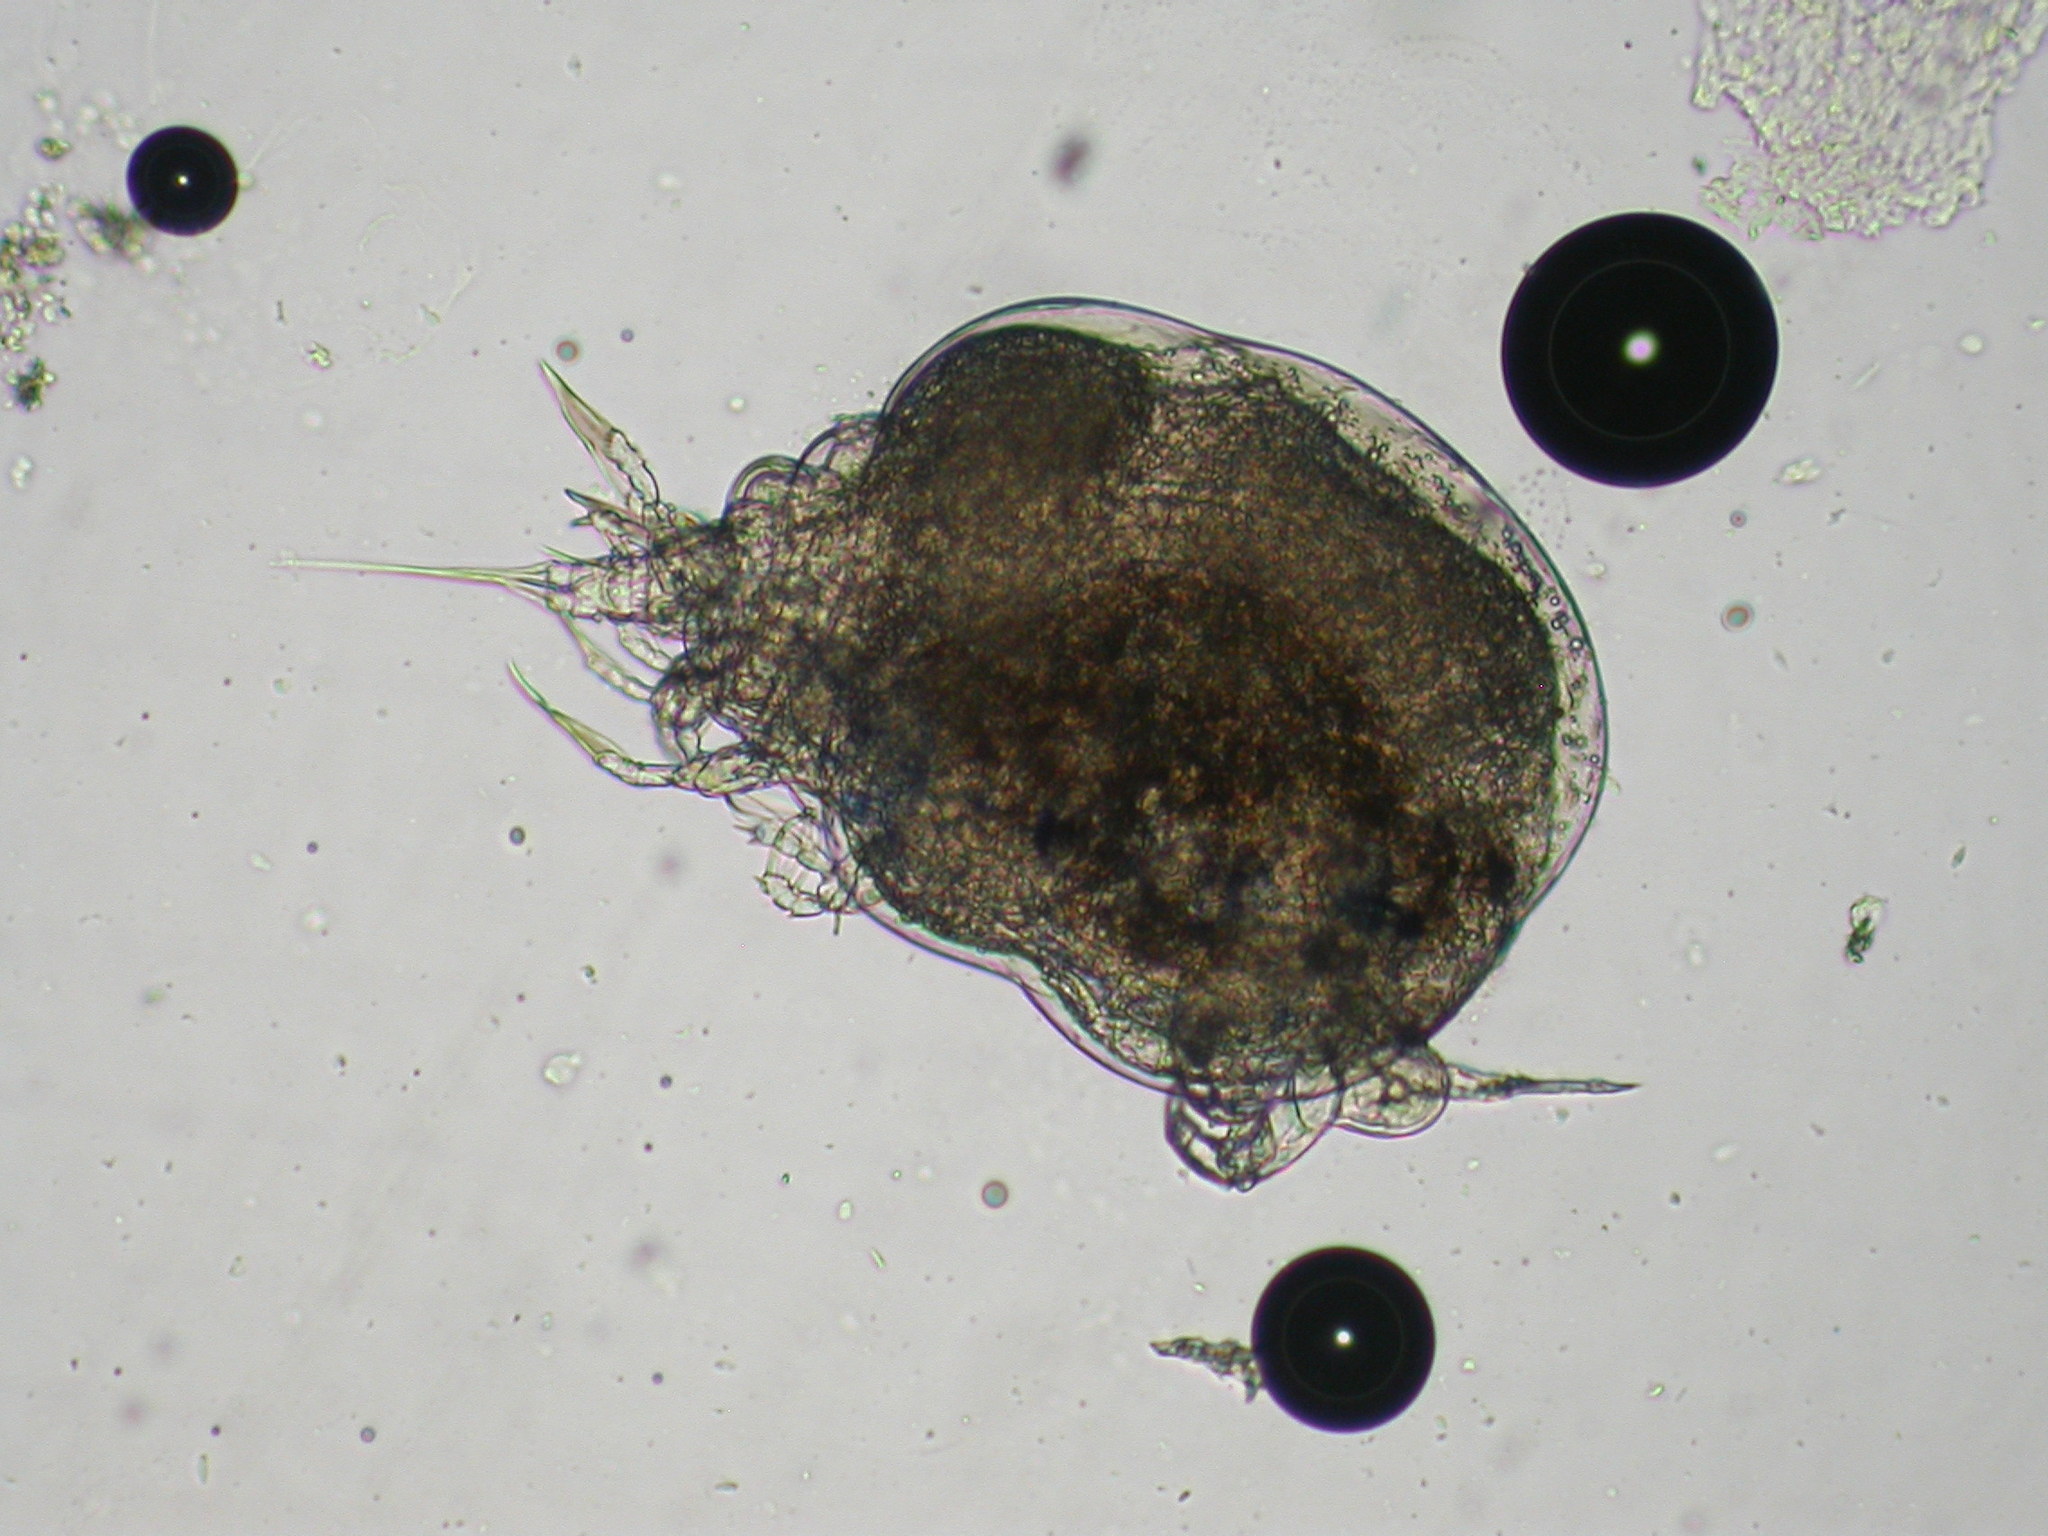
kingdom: Animalia
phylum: Arthropoda
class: Copepoda
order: Cyclopoida
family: Ergasilidae
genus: Thersitina
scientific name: Thersitina gasterostei
